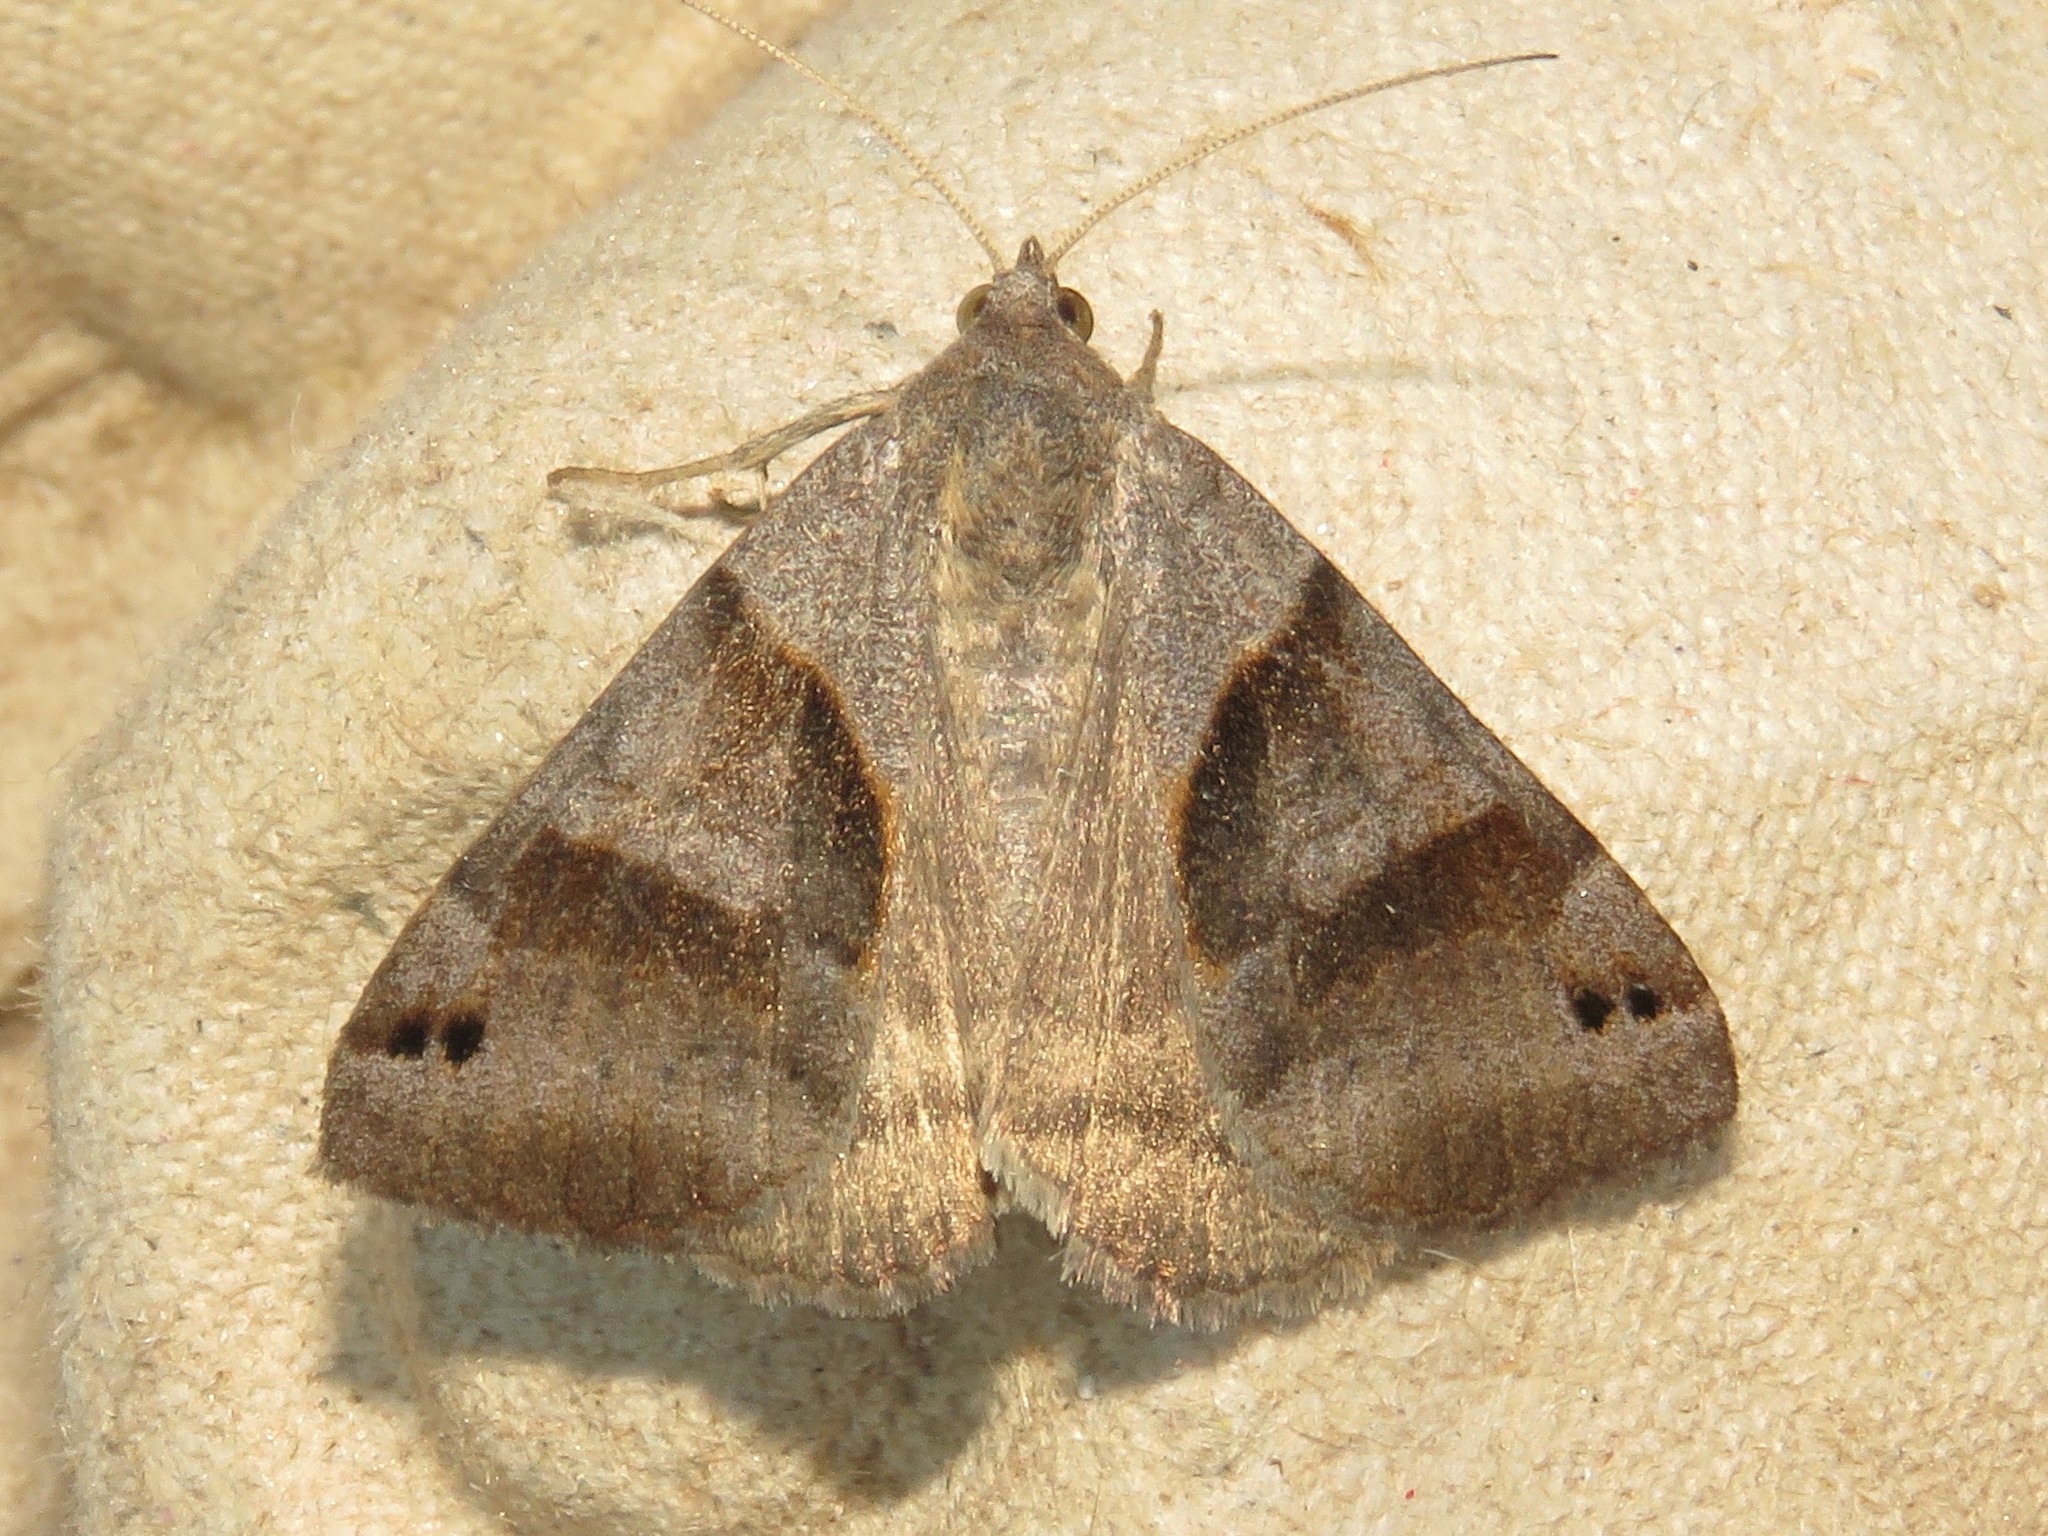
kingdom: Animalia
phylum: Arthropoda
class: Insecta
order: Lepidoptera
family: Erebidae
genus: Caenurgina
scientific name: Caenurgina erechtea
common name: Forage looper moth
